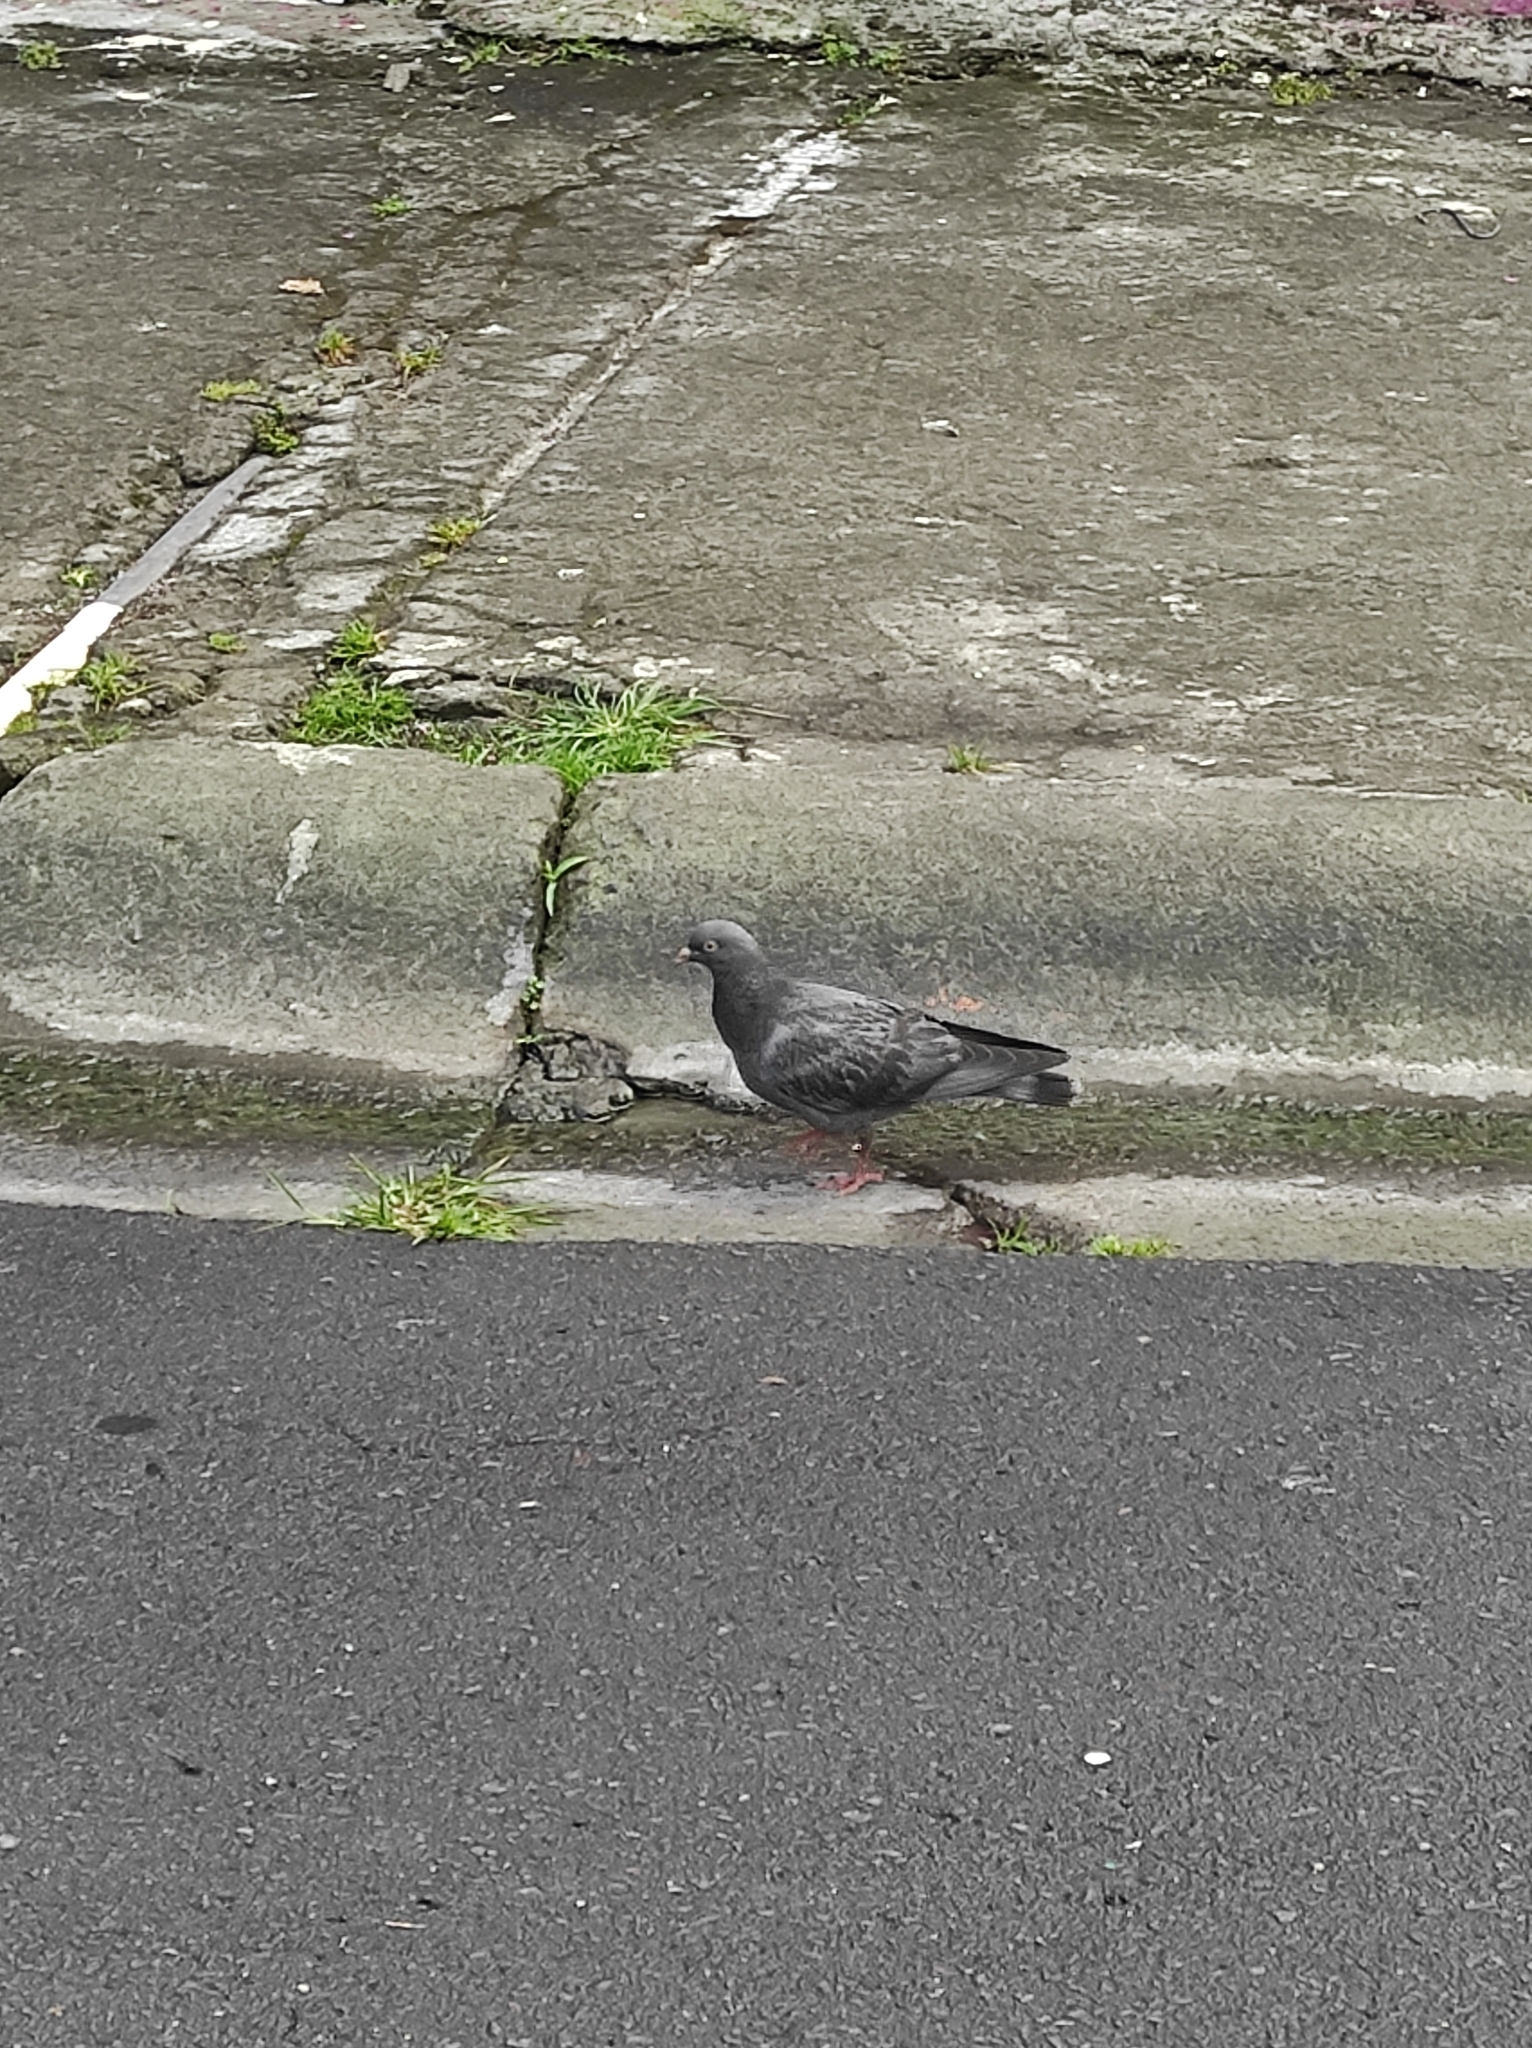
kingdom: Animalia
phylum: Chordata
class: Aves
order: Columbiformes
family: Columbidae
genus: Columba
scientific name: Columba livia
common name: Rock pigeon
